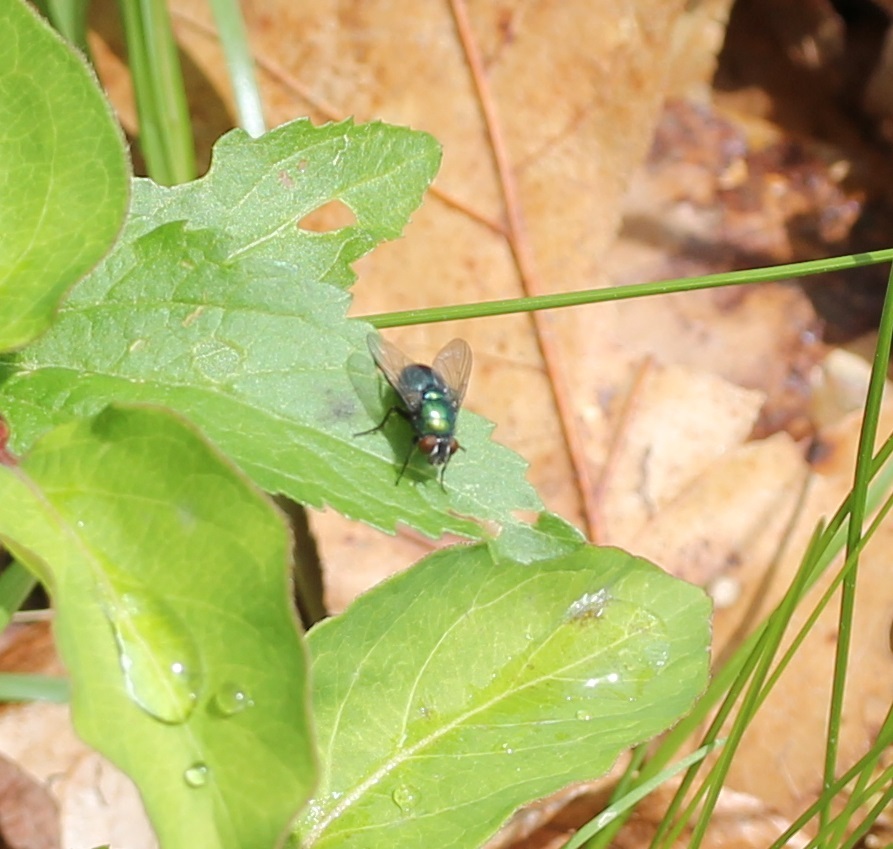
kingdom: Animalia
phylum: Arthropoda
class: Insecta
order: Diptera
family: Calliphoridae
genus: Lucilia
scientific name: Lucilia illustris
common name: Illustrious greenbottle
